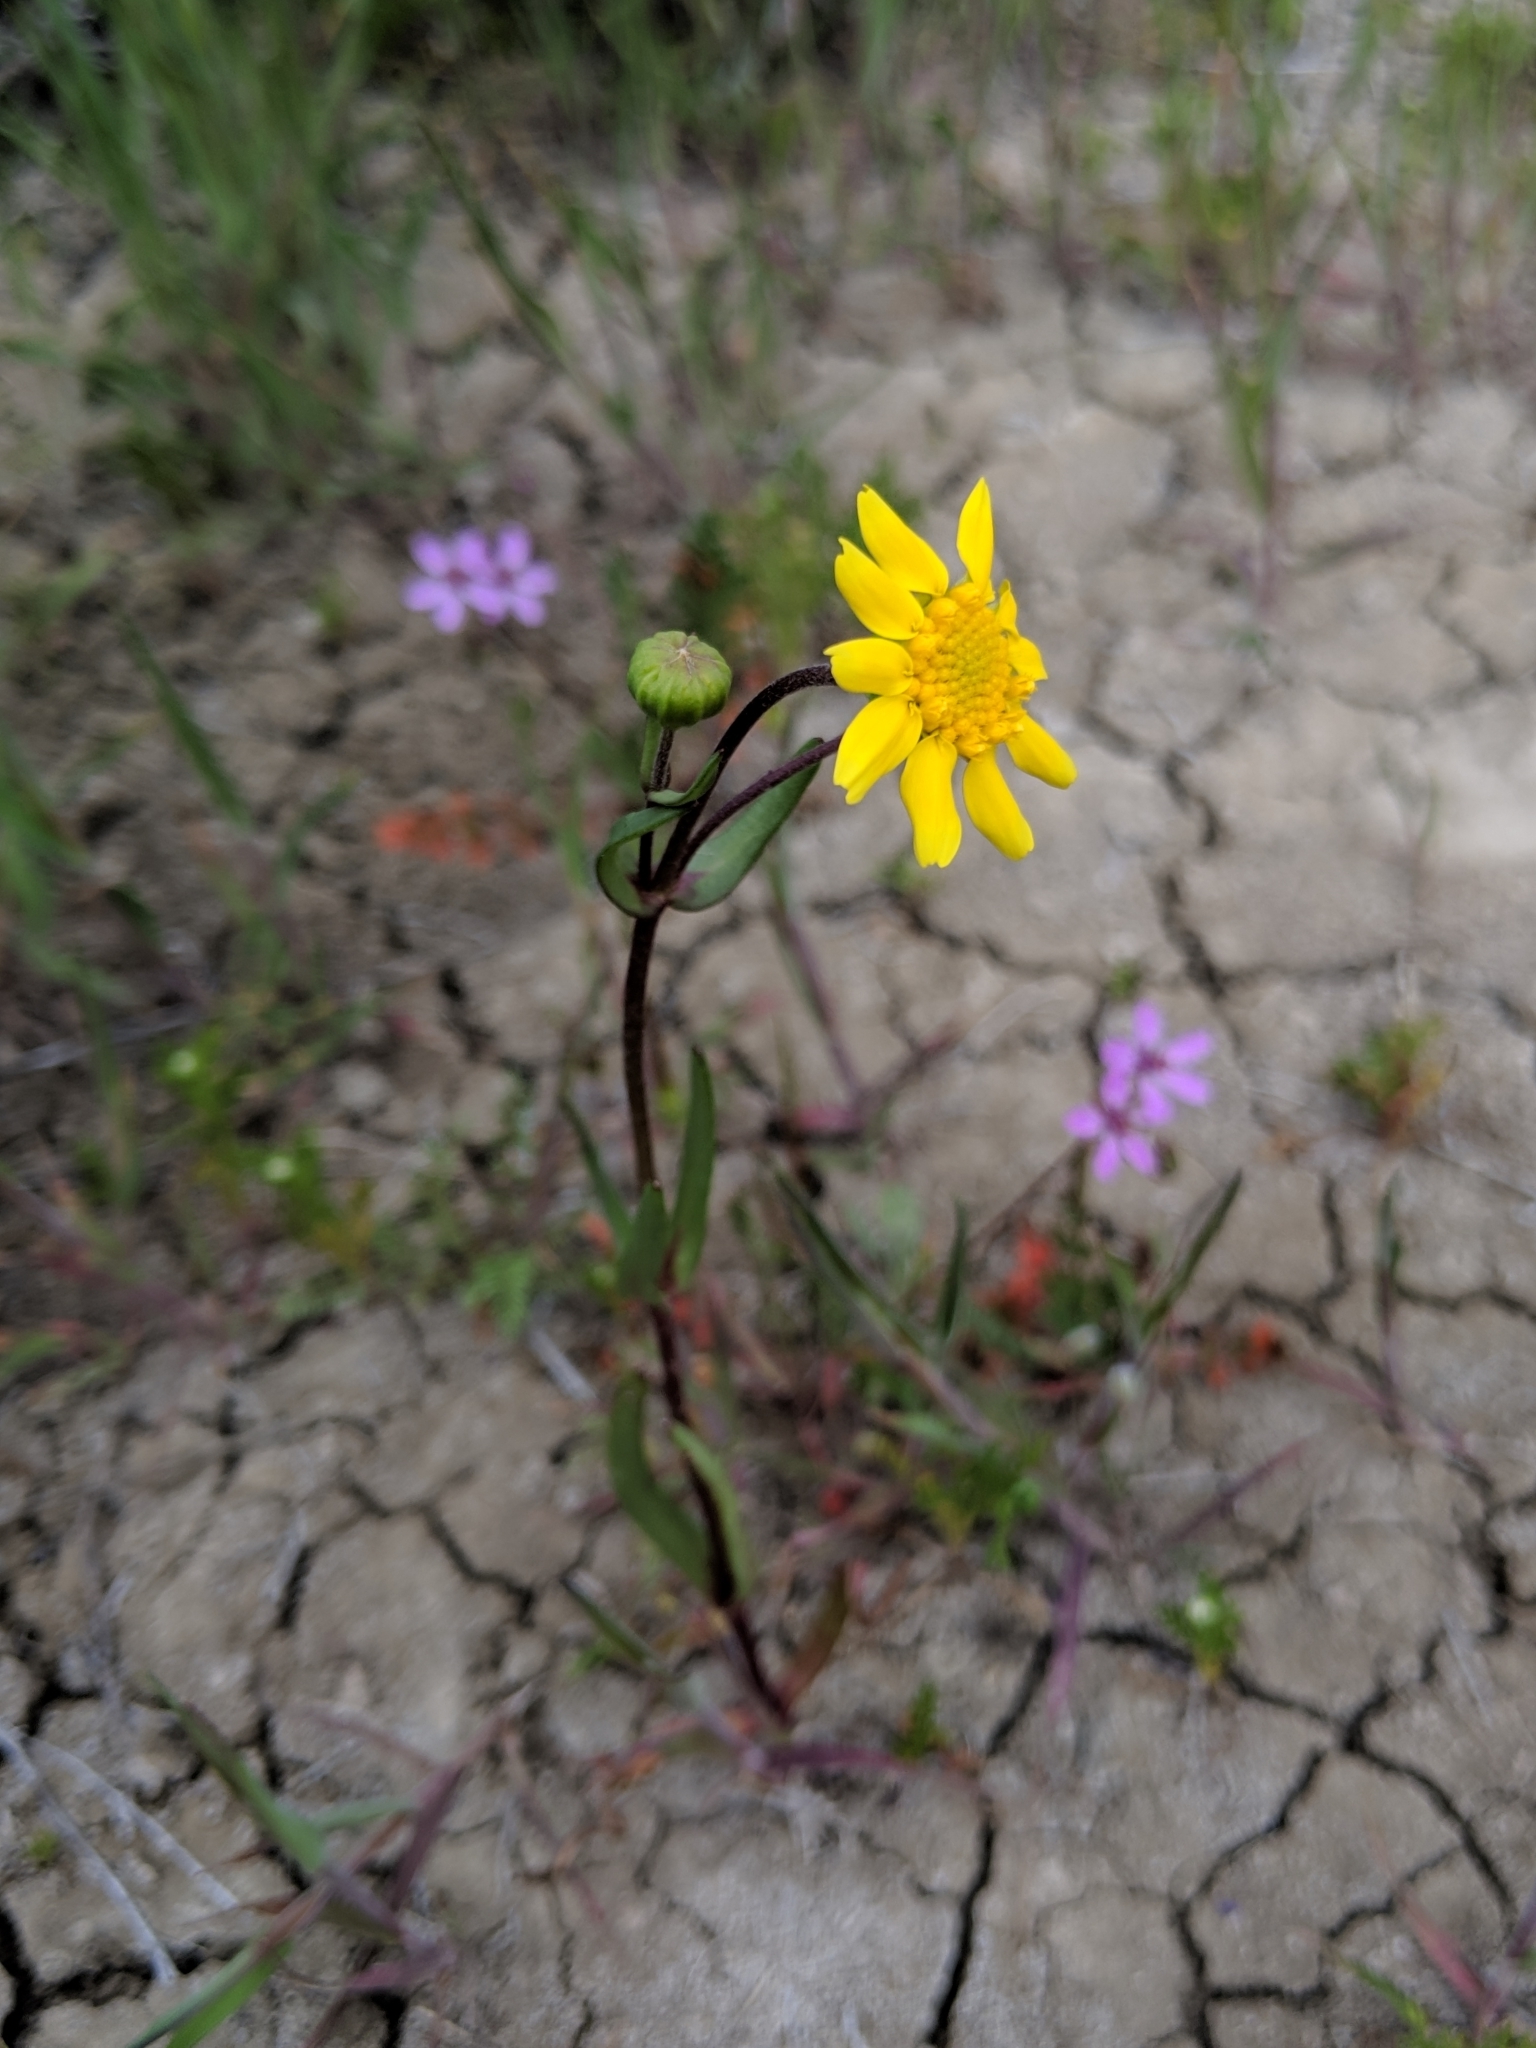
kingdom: Plantae
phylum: Tracheophyta
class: Magnoliopsida
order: Asterales
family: Asteraceae
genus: Lasthenia
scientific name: Lasthenia ferrisiae
